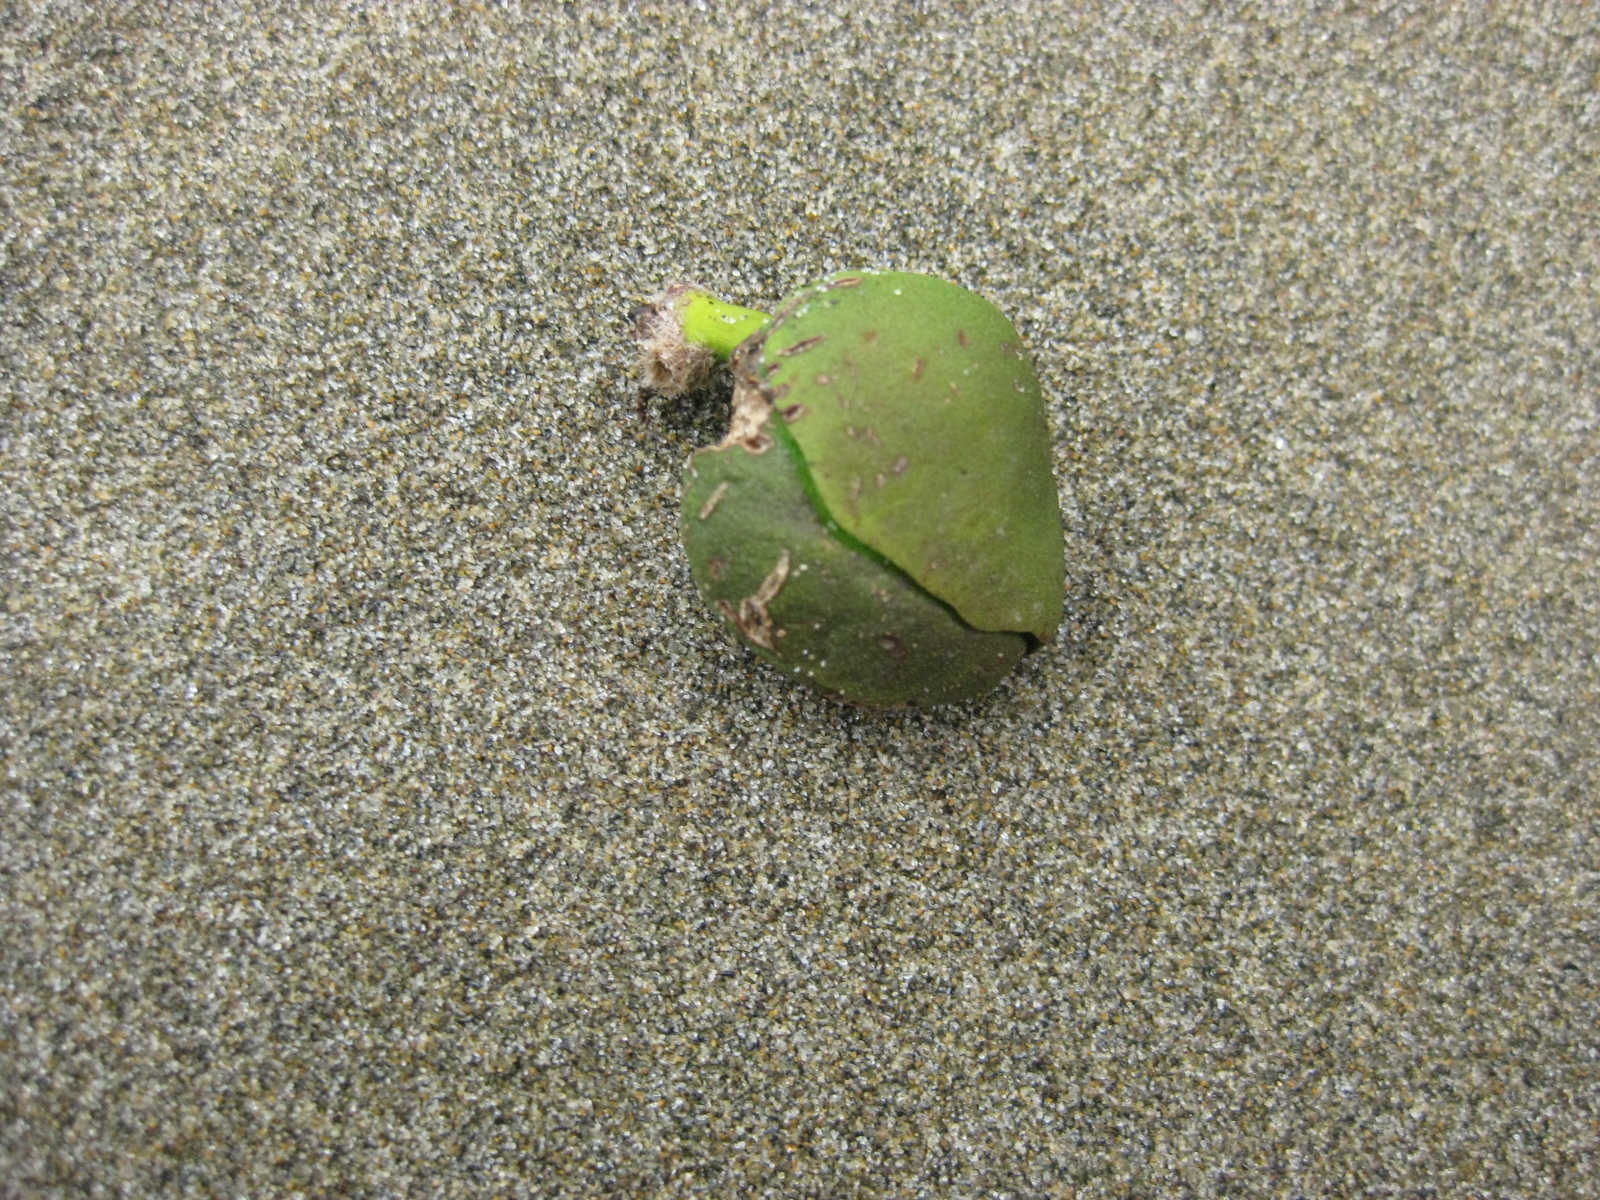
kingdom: Plantae
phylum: Tracheophyta
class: Magnoliopsida
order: Lamiales
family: Acanthaceae
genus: Avicennia
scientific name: Avicennia marina
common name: Gray mangrove
